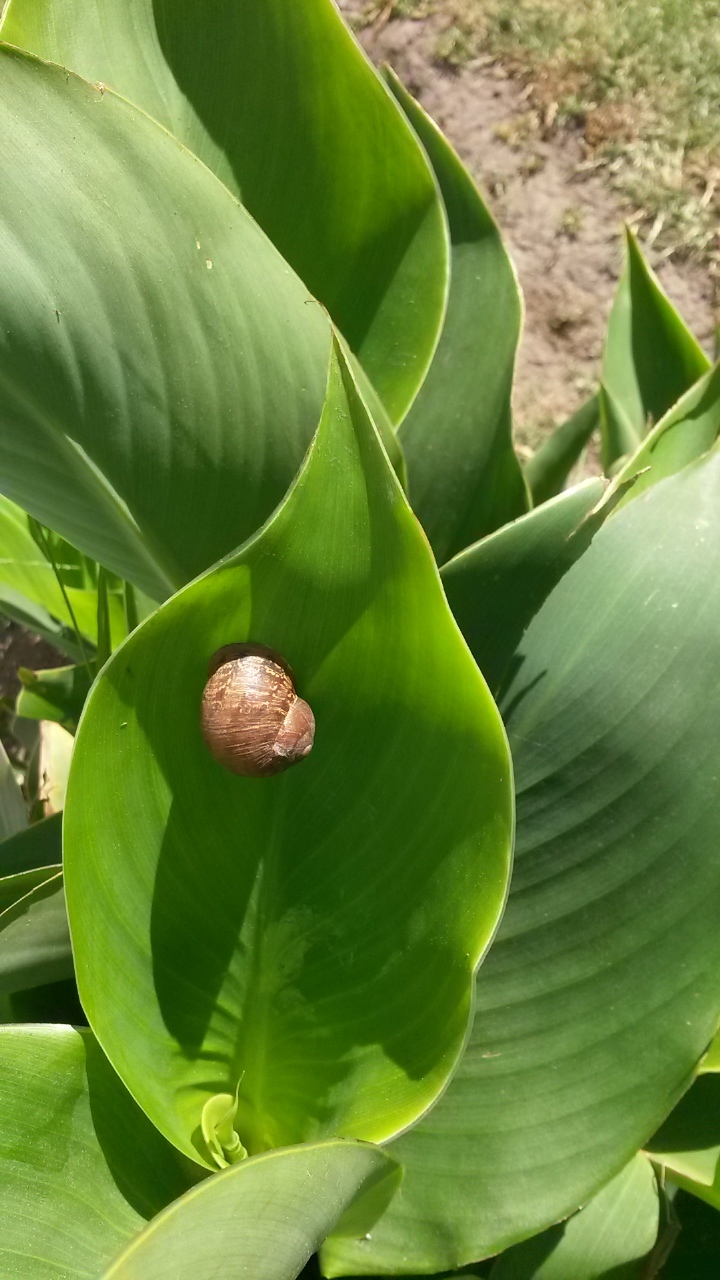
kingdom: Animalia
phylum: Mollusca
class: Gastropoda
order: Stylommatophora
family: Helicidae
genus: Cornu
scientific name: Cornu aspersum
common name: Brown garden snail
